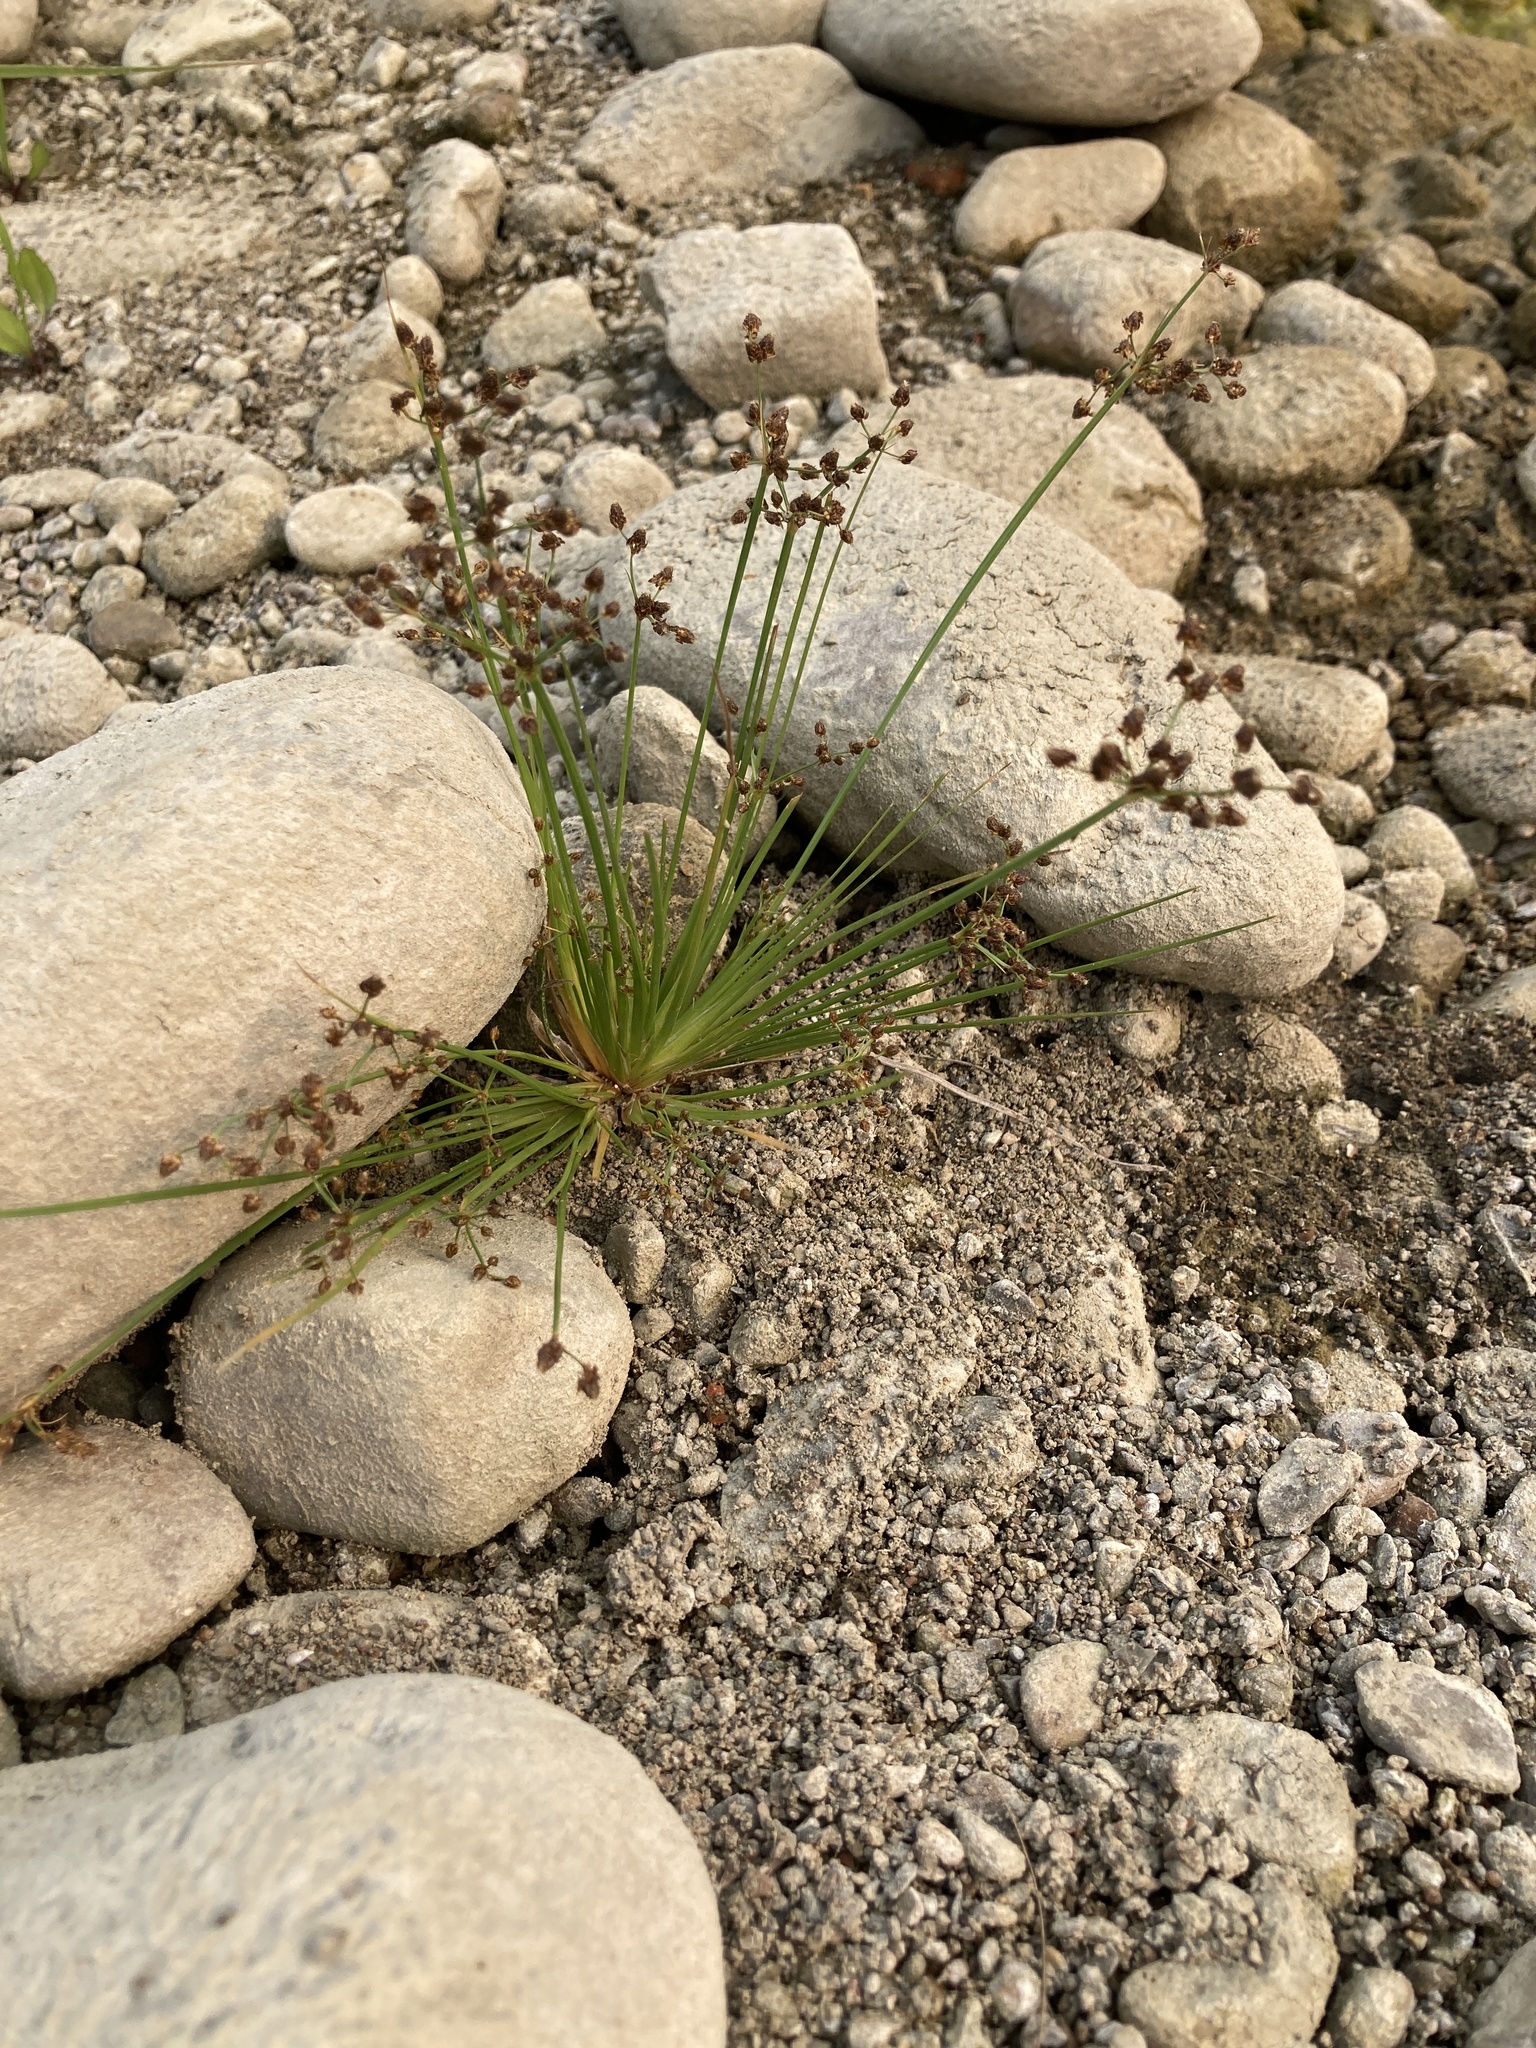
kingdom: Plantae
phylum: Tracheophyta
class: Liliopsida
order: Poales
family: Cyperaceae
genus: Fimbristylis
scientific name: Fimbristylis littoralis
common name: Fimbry
